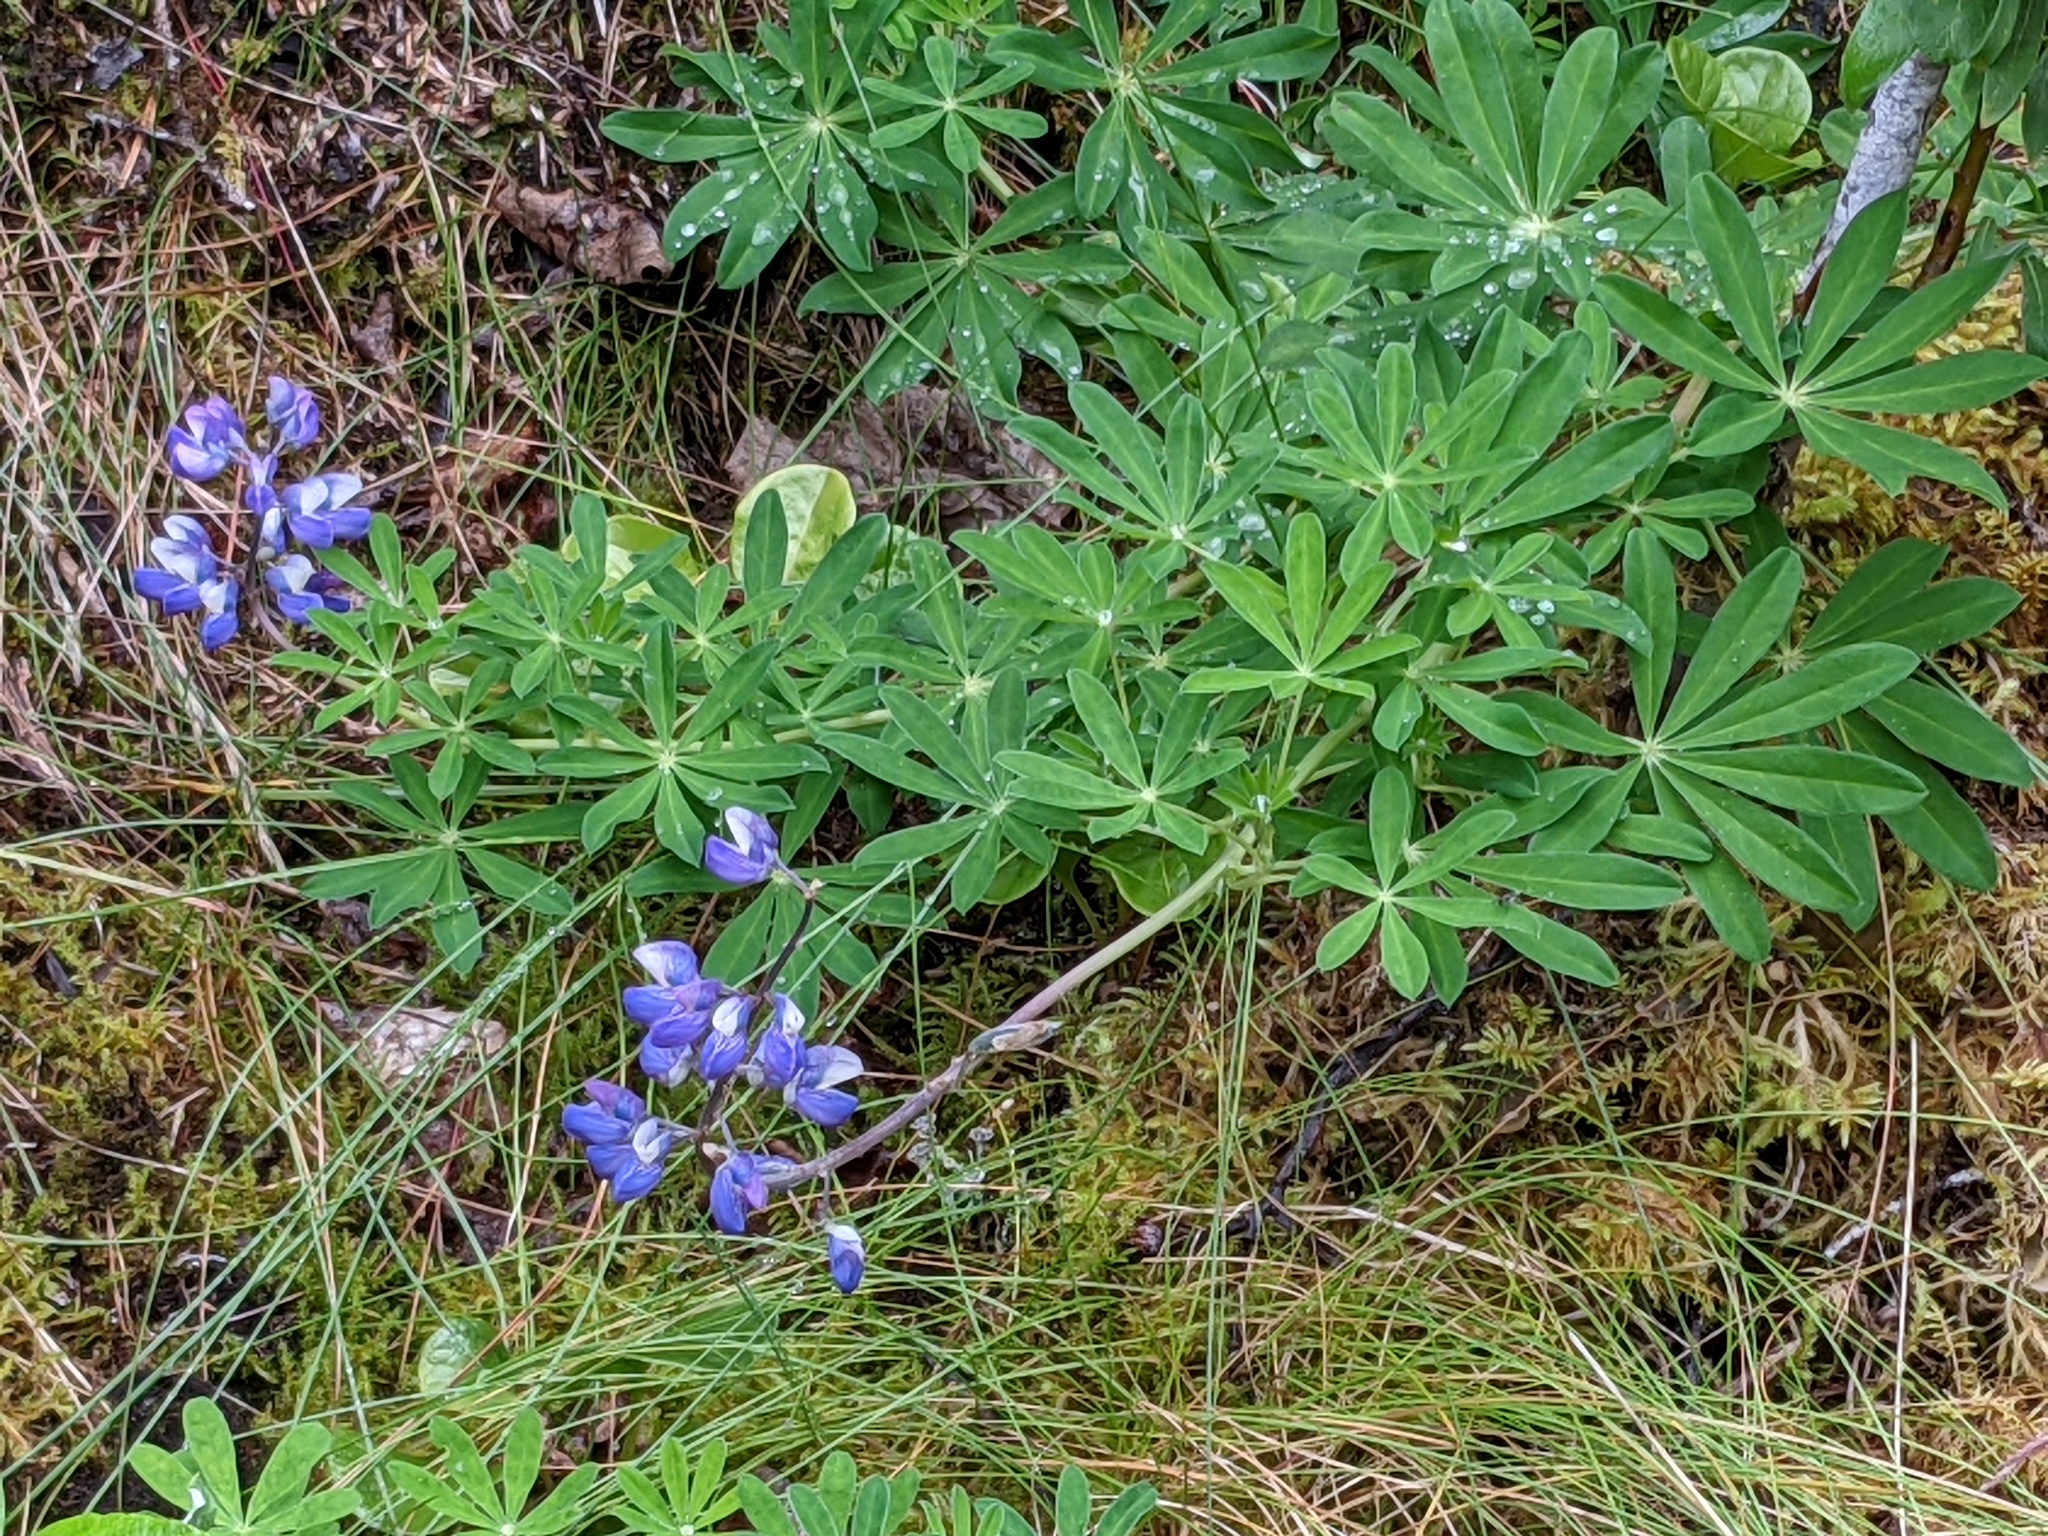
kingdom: Plantae
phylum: Tracheophyta
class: Magnoliopsida
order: Fabales
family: Fabaceae
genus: Lupinus
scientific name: Lupinus nootkatensis
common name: Nootka lupine
